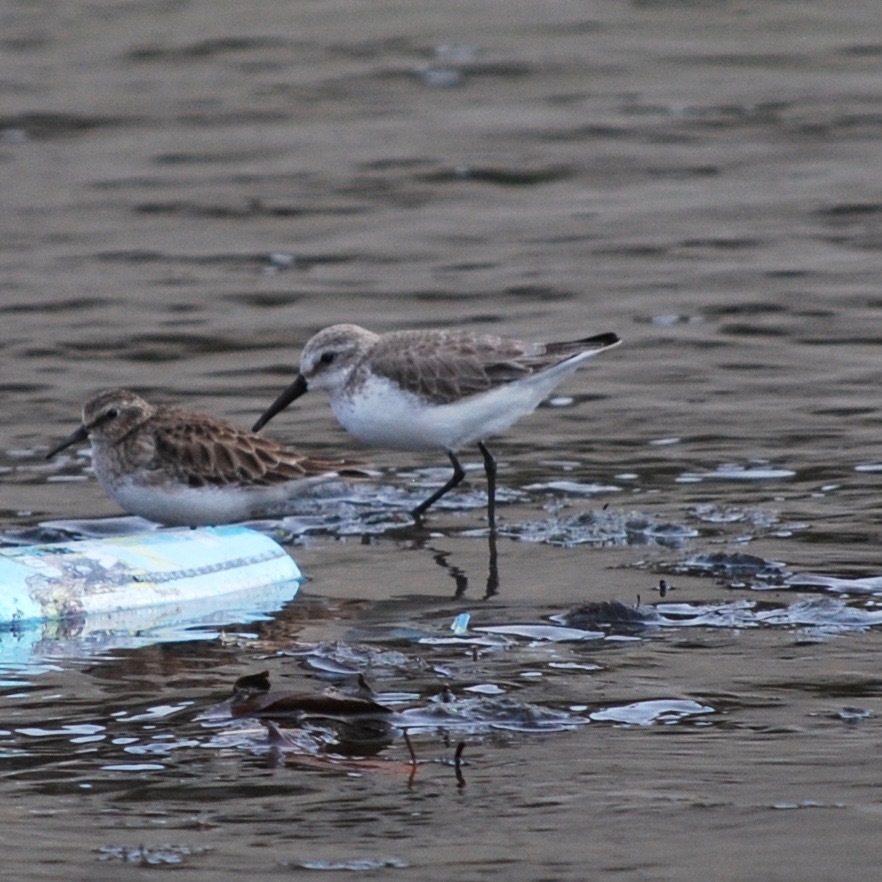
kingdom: Animalia
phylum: Chordata
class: Aves
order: Charadriiformes
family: Scolopacidae
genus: Calidris
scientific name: Calidris mauri
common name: Western sandpiper
